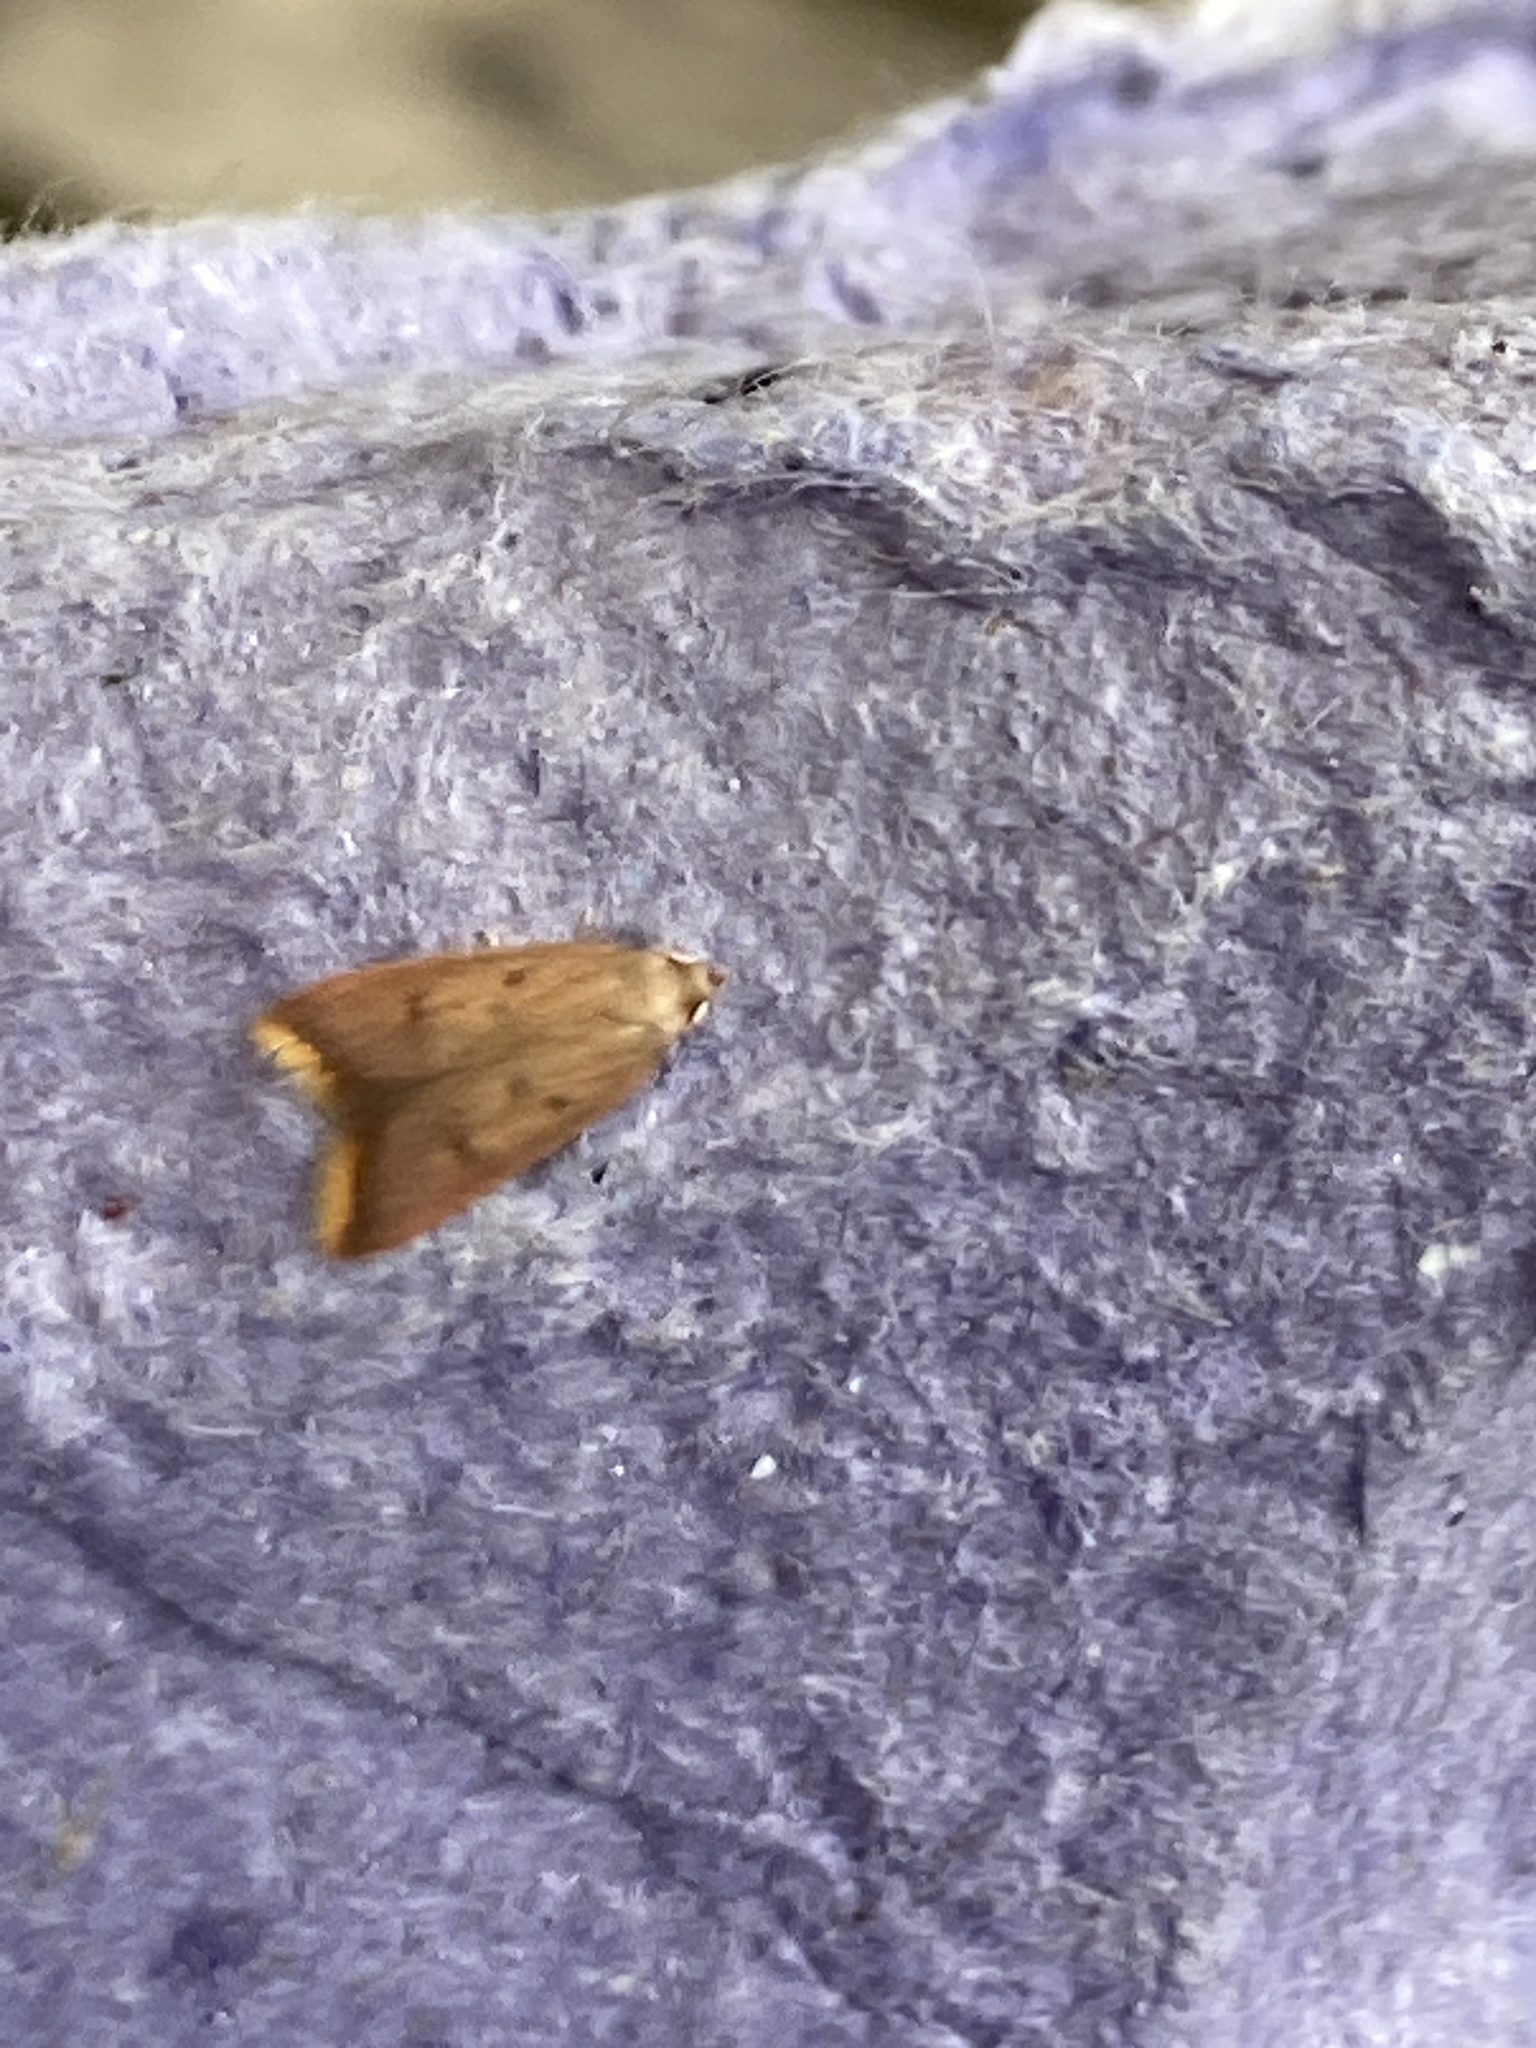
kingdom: Animalia
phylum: Arthropoda
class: Insecta
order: Lepidoptera
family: Oecophoridae
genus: Tachystola
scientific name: Tachystola acroxantha
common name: Ruddy streak
